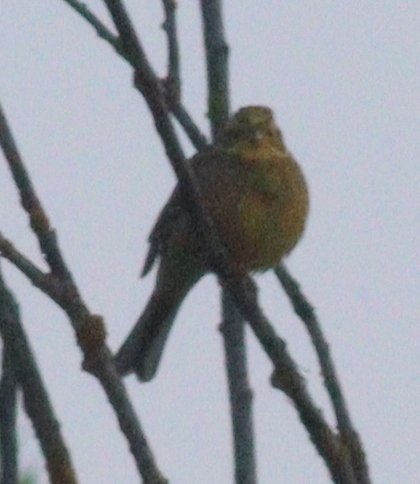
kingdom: Animalia
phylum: Chordata
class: Aves
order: Passeriformes
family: Emberizidae
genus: Emberiza
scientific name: Emberiza citrinella
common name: Yellowhammer
